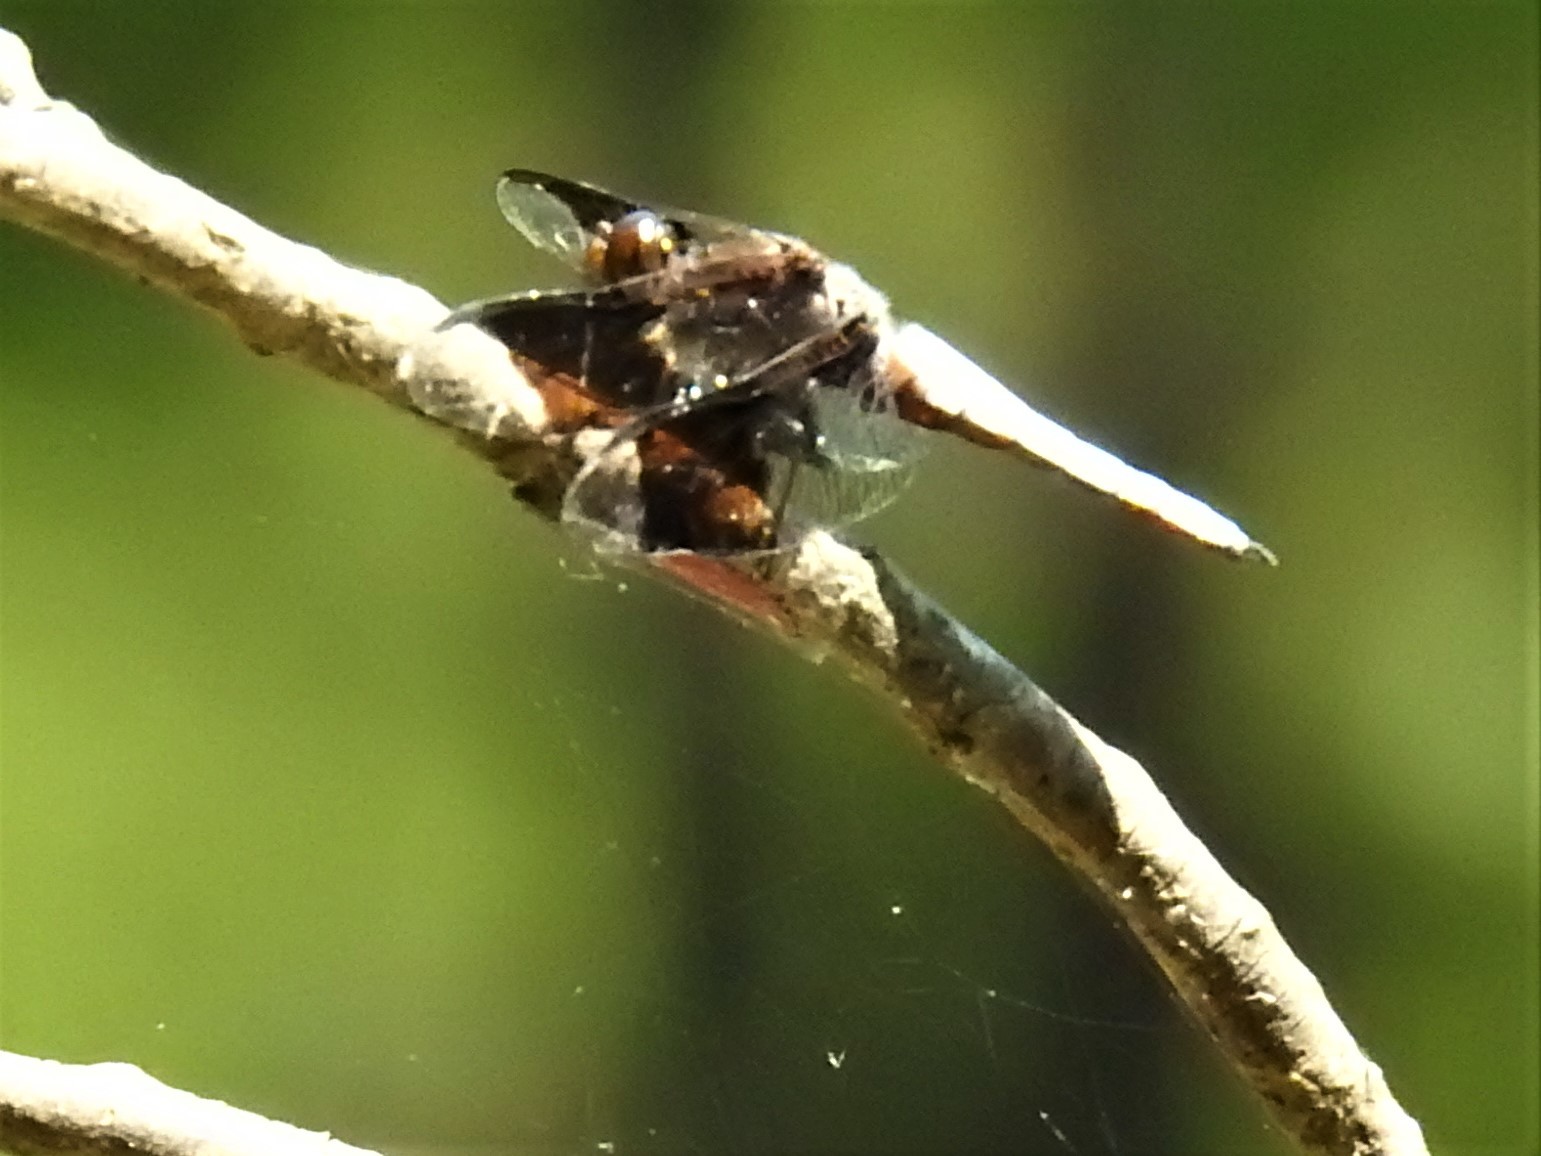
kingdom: Animalia
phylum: Arthropoda
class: Insecta
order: Odonata
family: Libellulidae
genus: Plathemis
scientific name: Plathemis lydia
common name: Common whitetail
